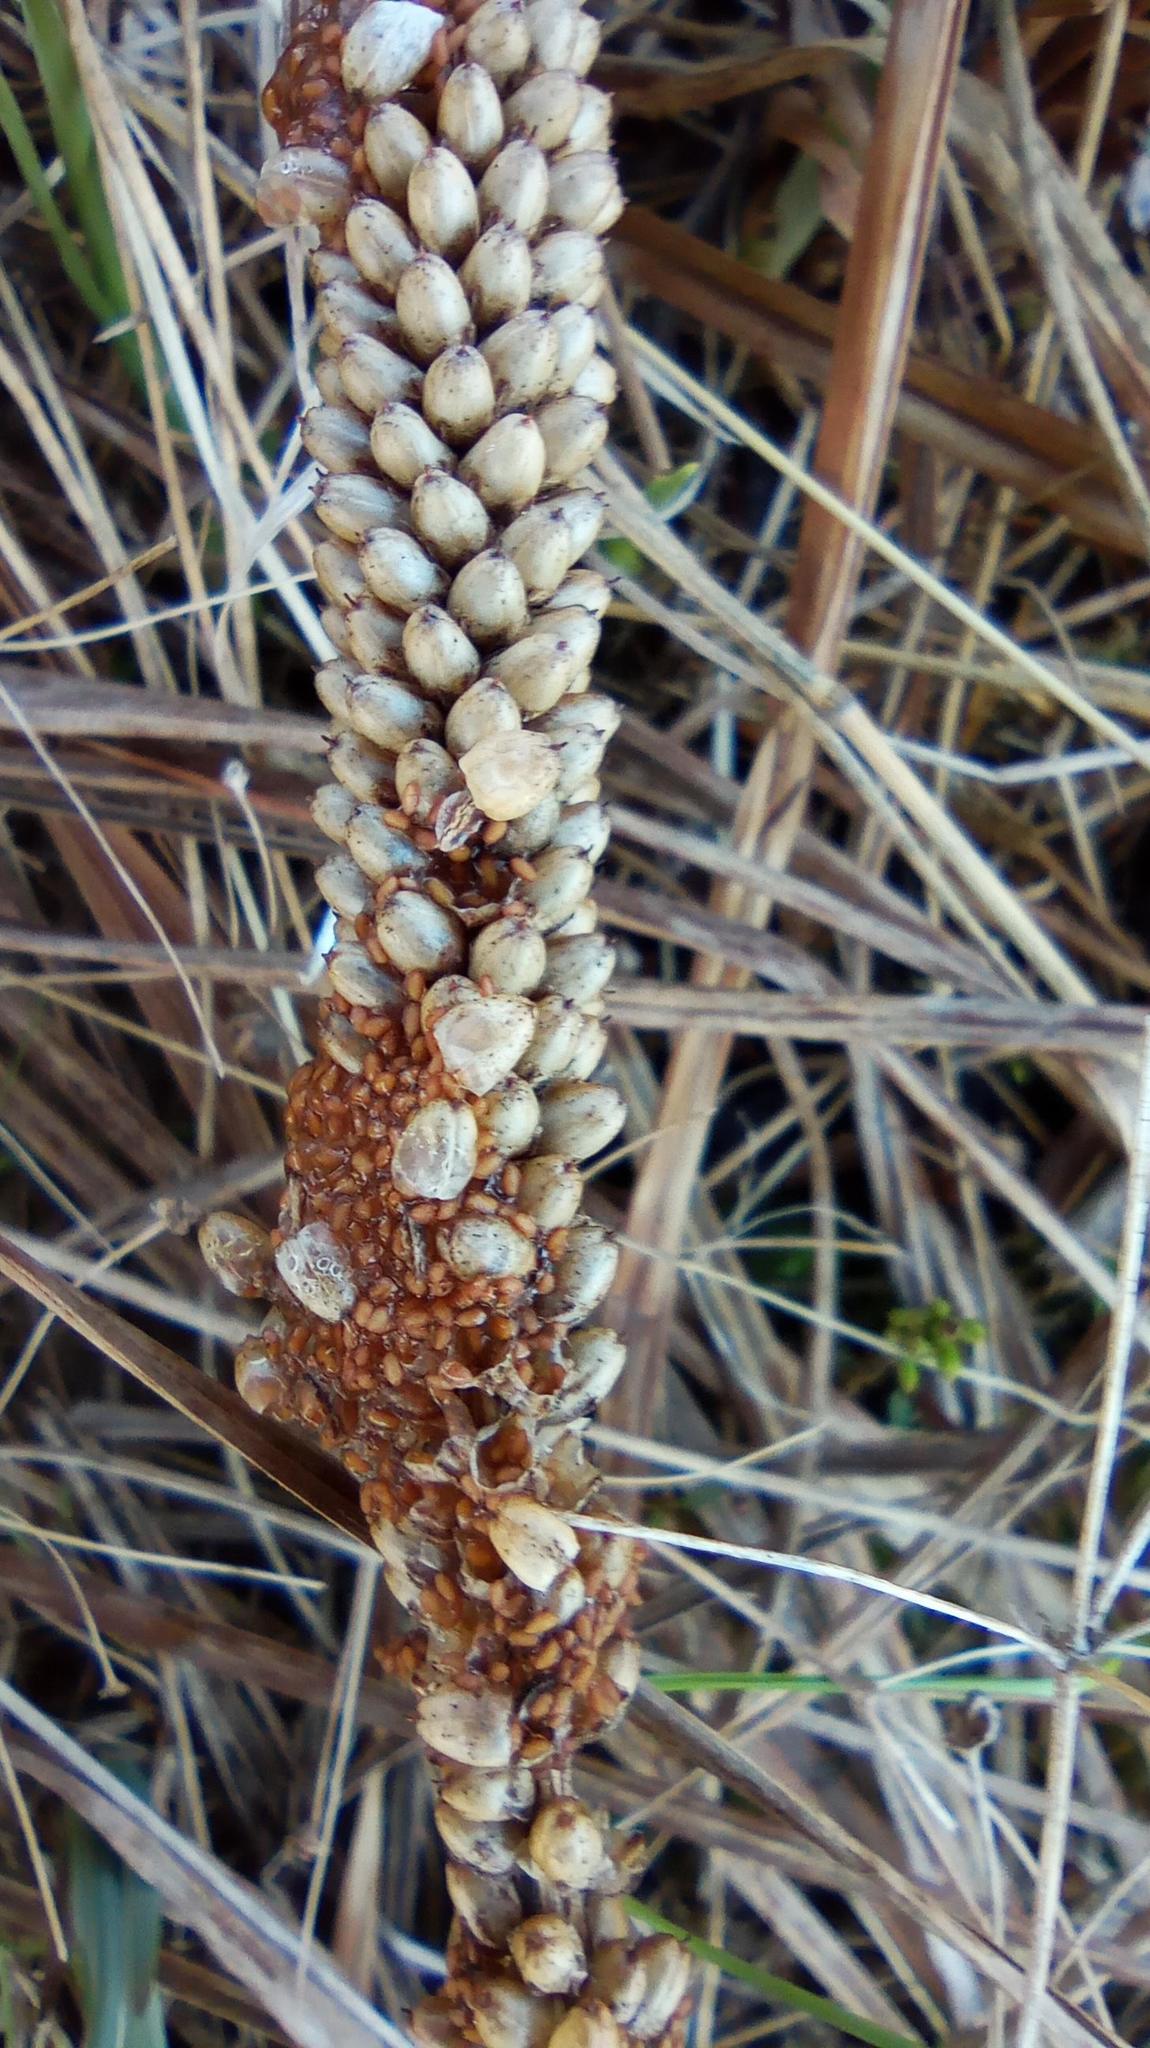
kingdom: Plantae
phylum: Tracheophyta
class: Magnoliopsida
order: Lamiales
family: Plantaginaceae
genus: Plantago
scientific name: Plantago major
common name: Common plantain
